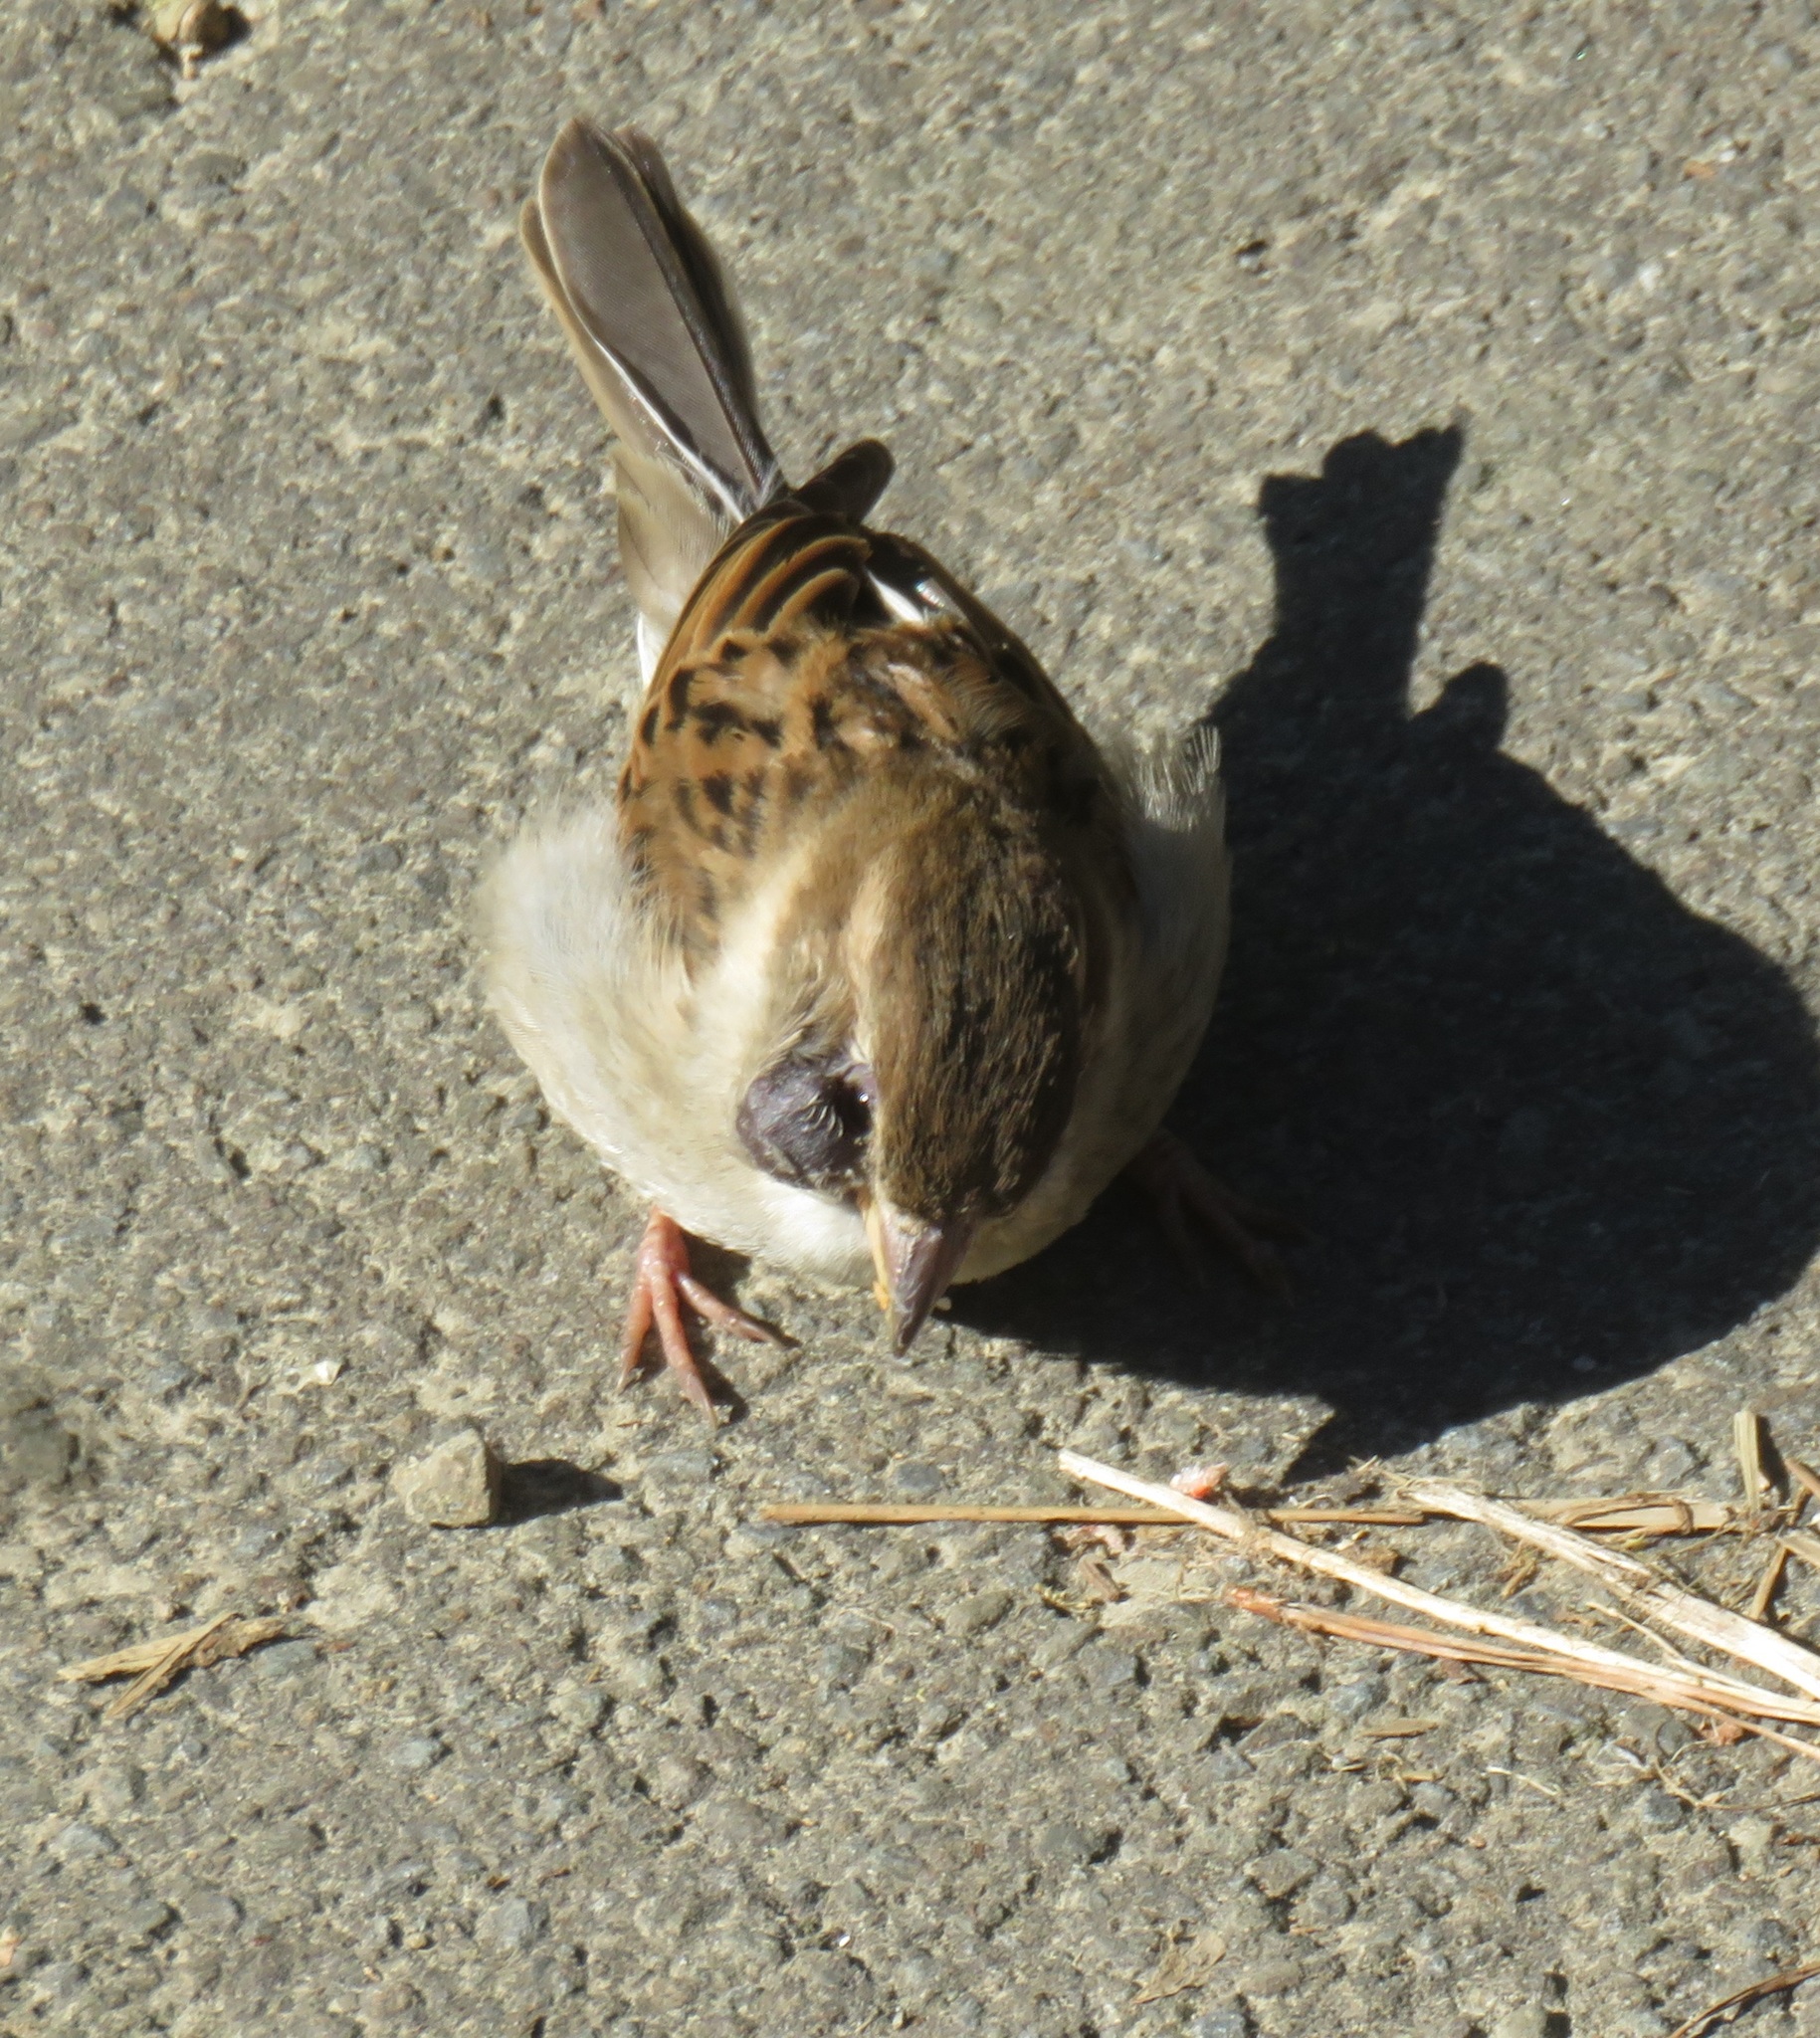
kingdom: Animalia
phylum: Chordata
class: Aves
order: Passeriformes
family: Passeridae
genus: Passer
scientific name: Passer domesticus
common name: House sparrow
